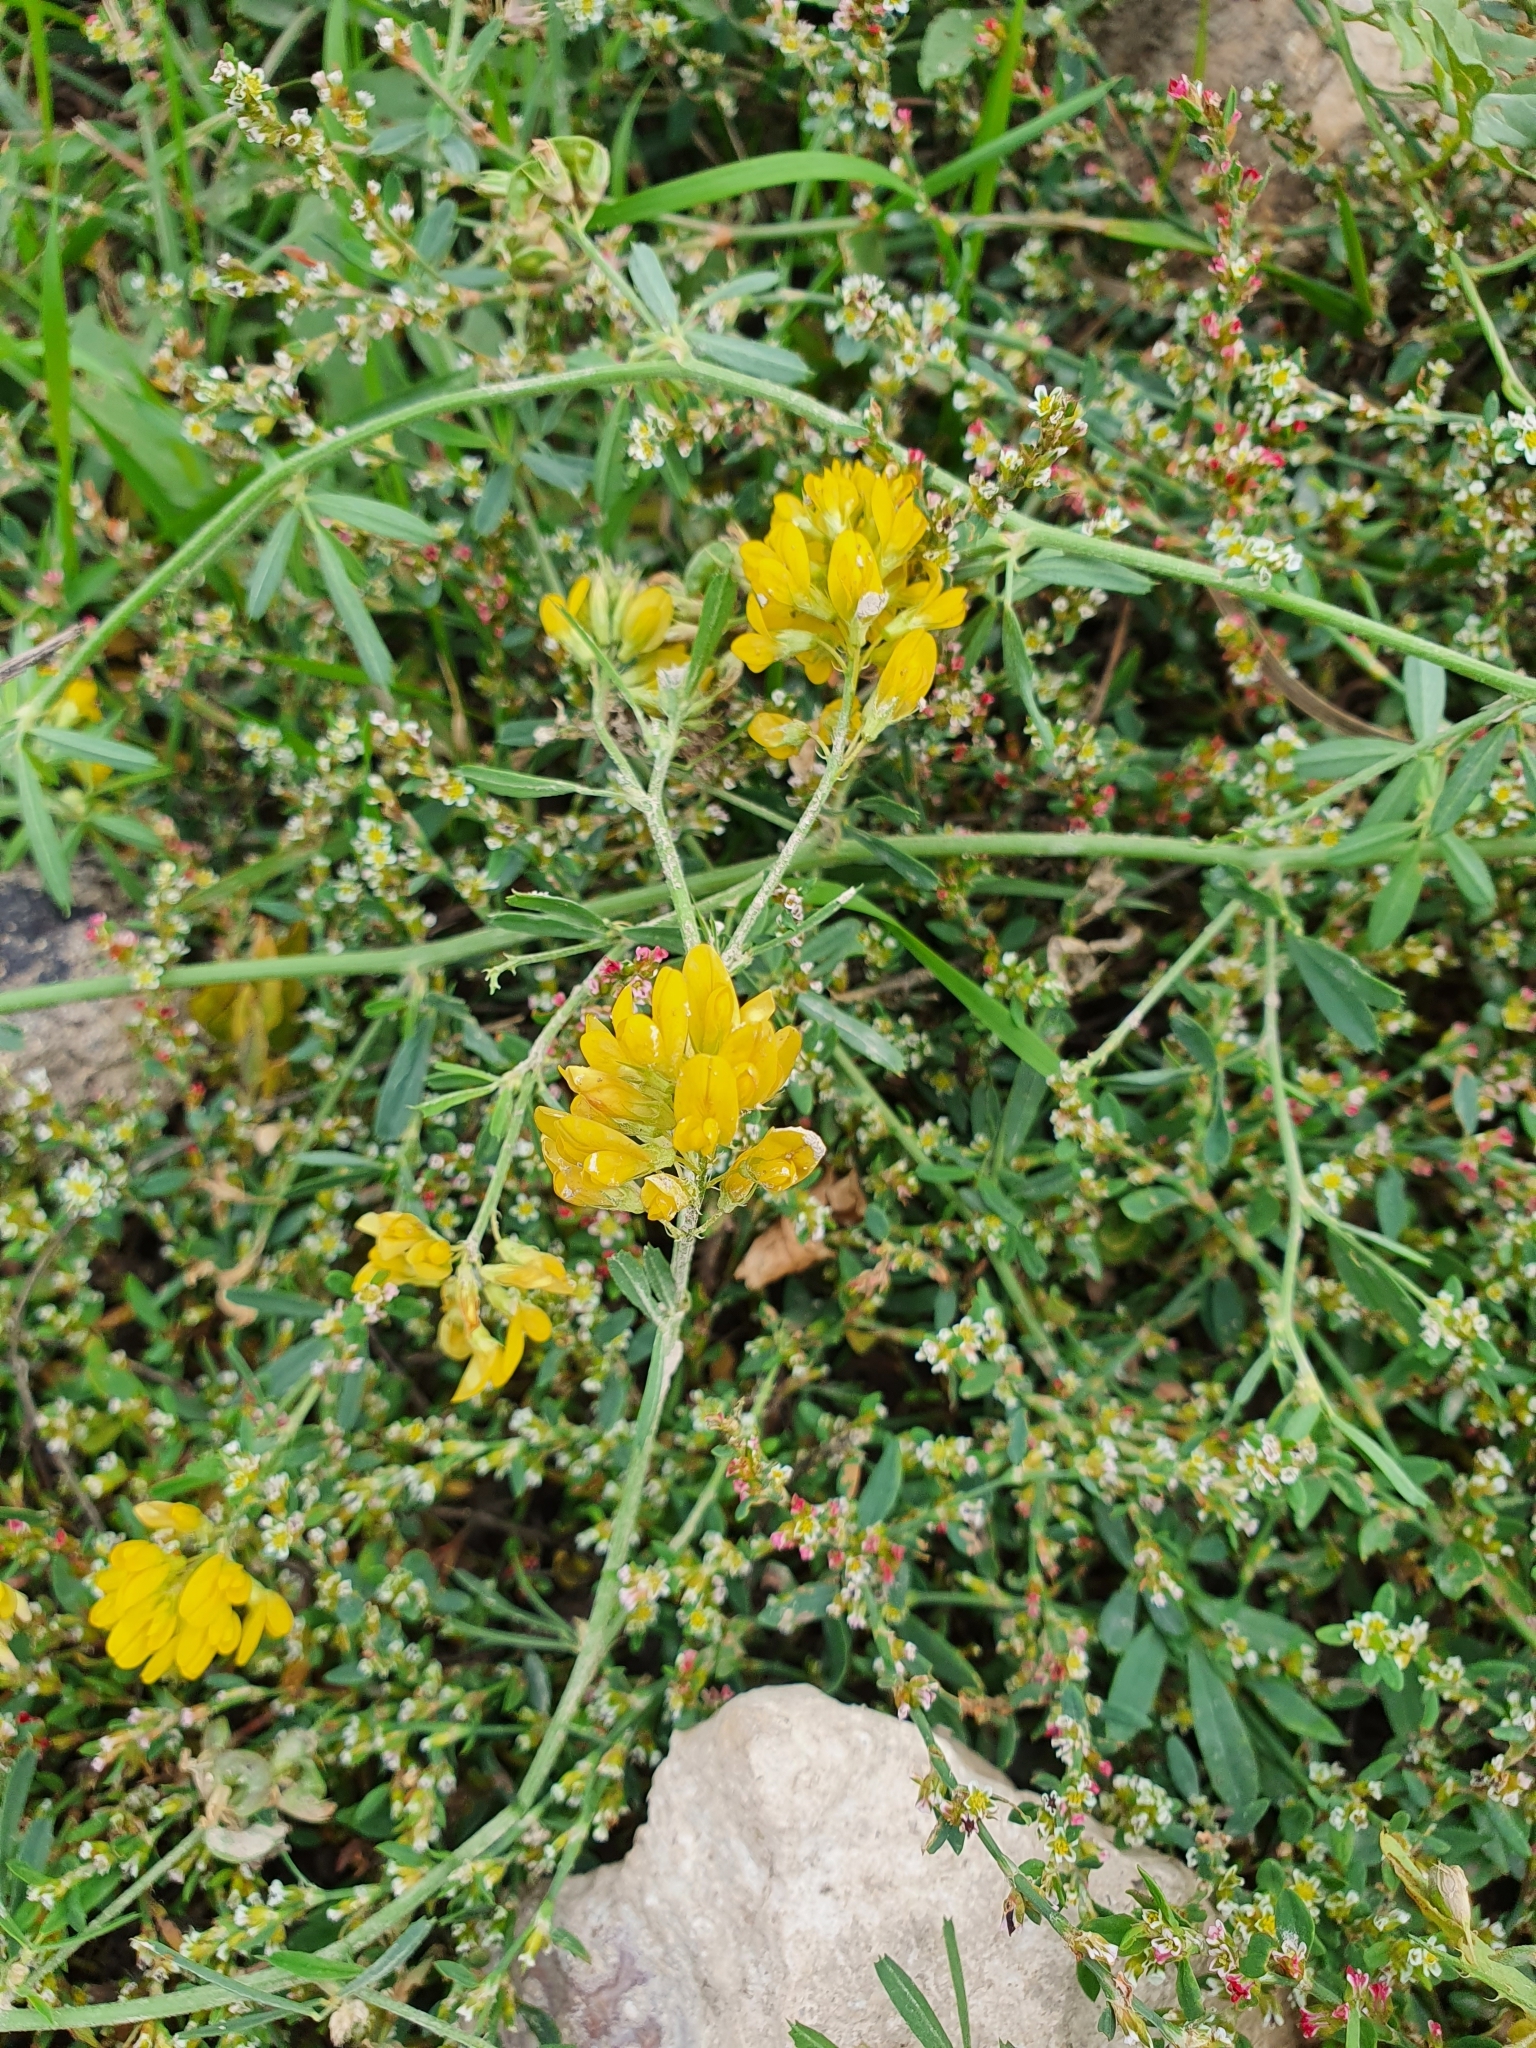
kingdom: Plantae
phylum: Tracheophyta
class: Magnoliopsida
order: Fabales
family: Fabaceae
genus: Medicago
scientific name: Medicago falcata
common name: Sickle medick
